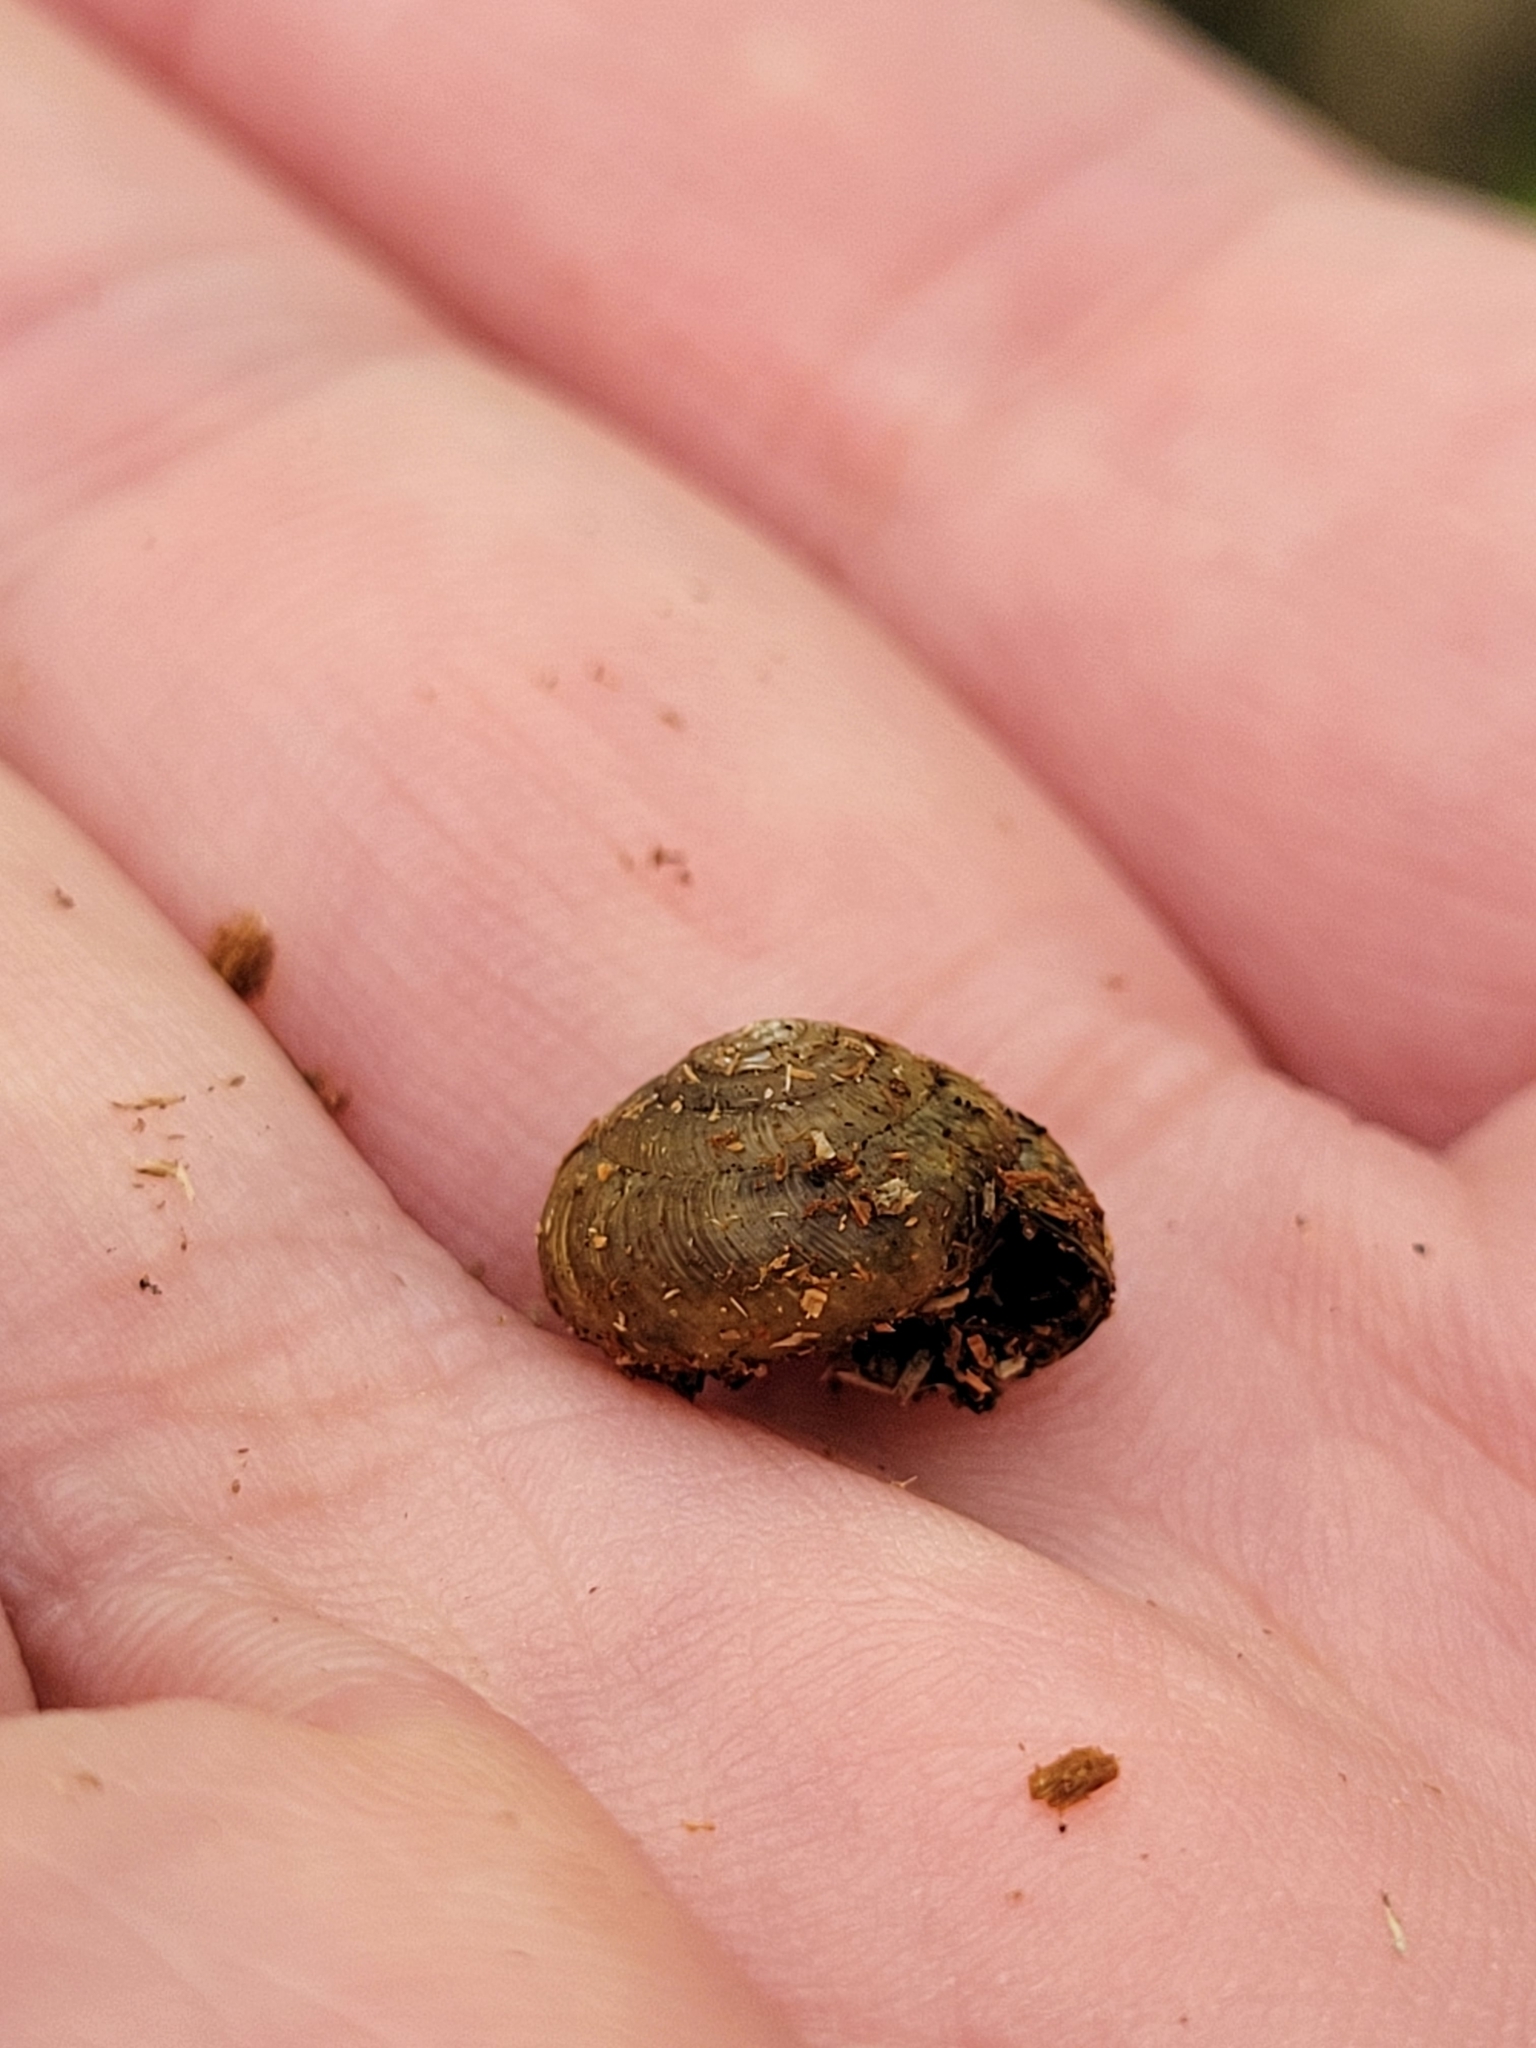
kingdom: Animalia
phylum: Mollusca
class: Gastropoda
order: Stylommatophora
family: Gastrodontidae
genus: Ventridens
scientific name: Ventridens ligera
